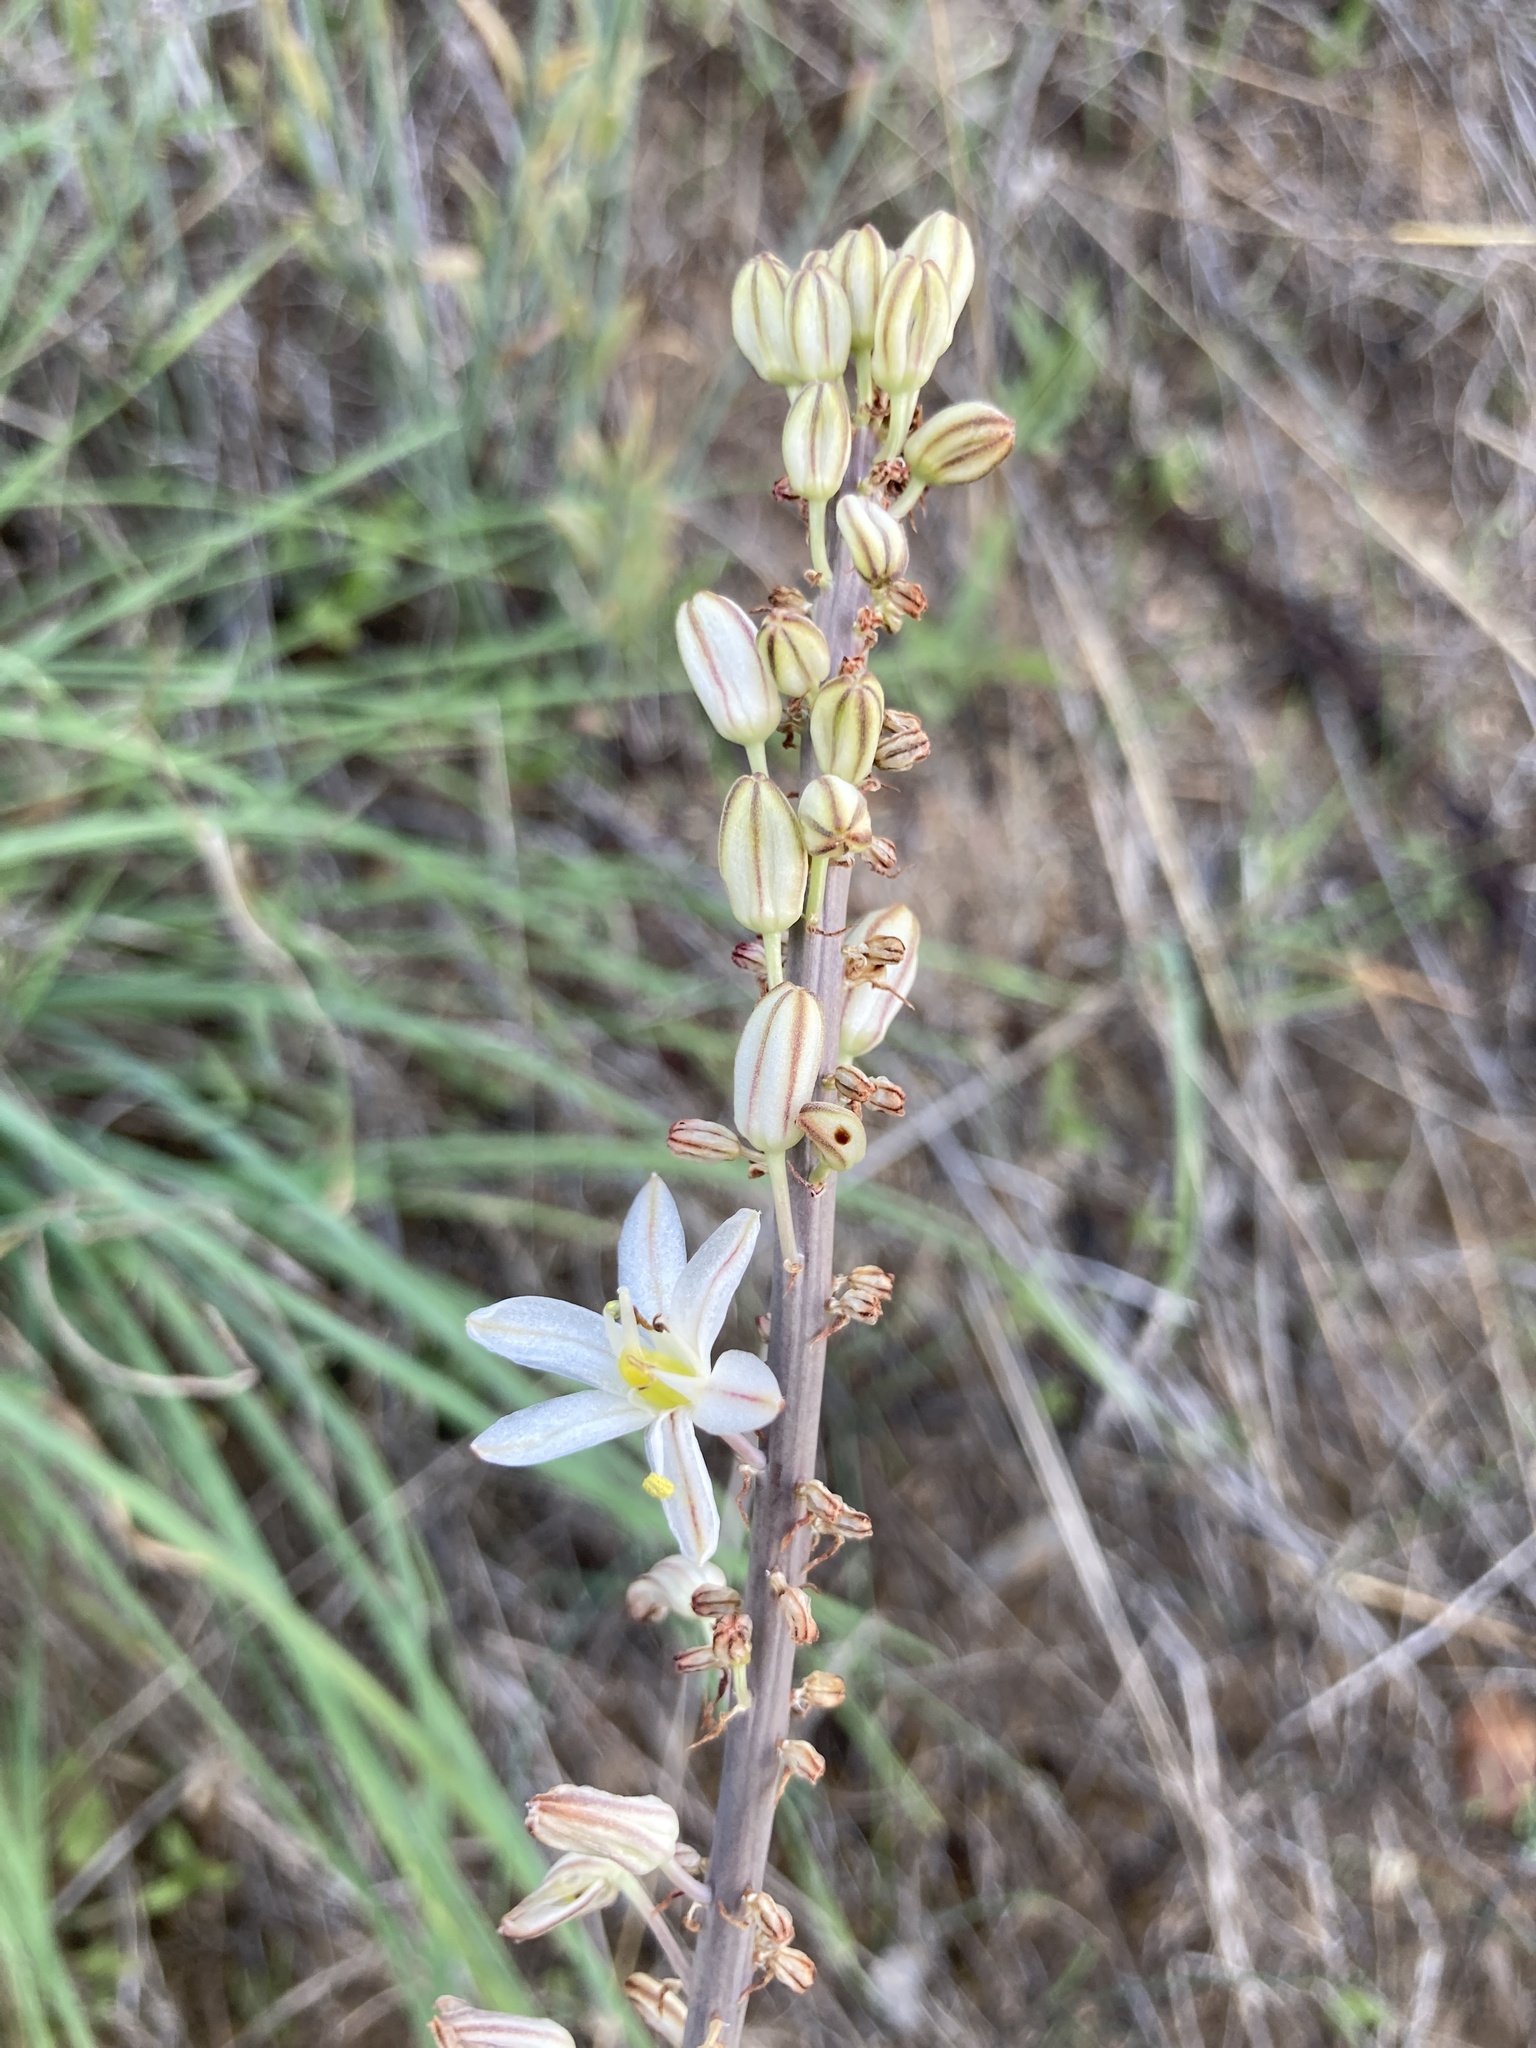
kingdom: Plantae
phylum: Tracheophyta
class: Liliopsida
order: Asparagales
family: Asparagaceae
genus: Drimia
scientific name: Drimia maritima
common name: Maritime squill
